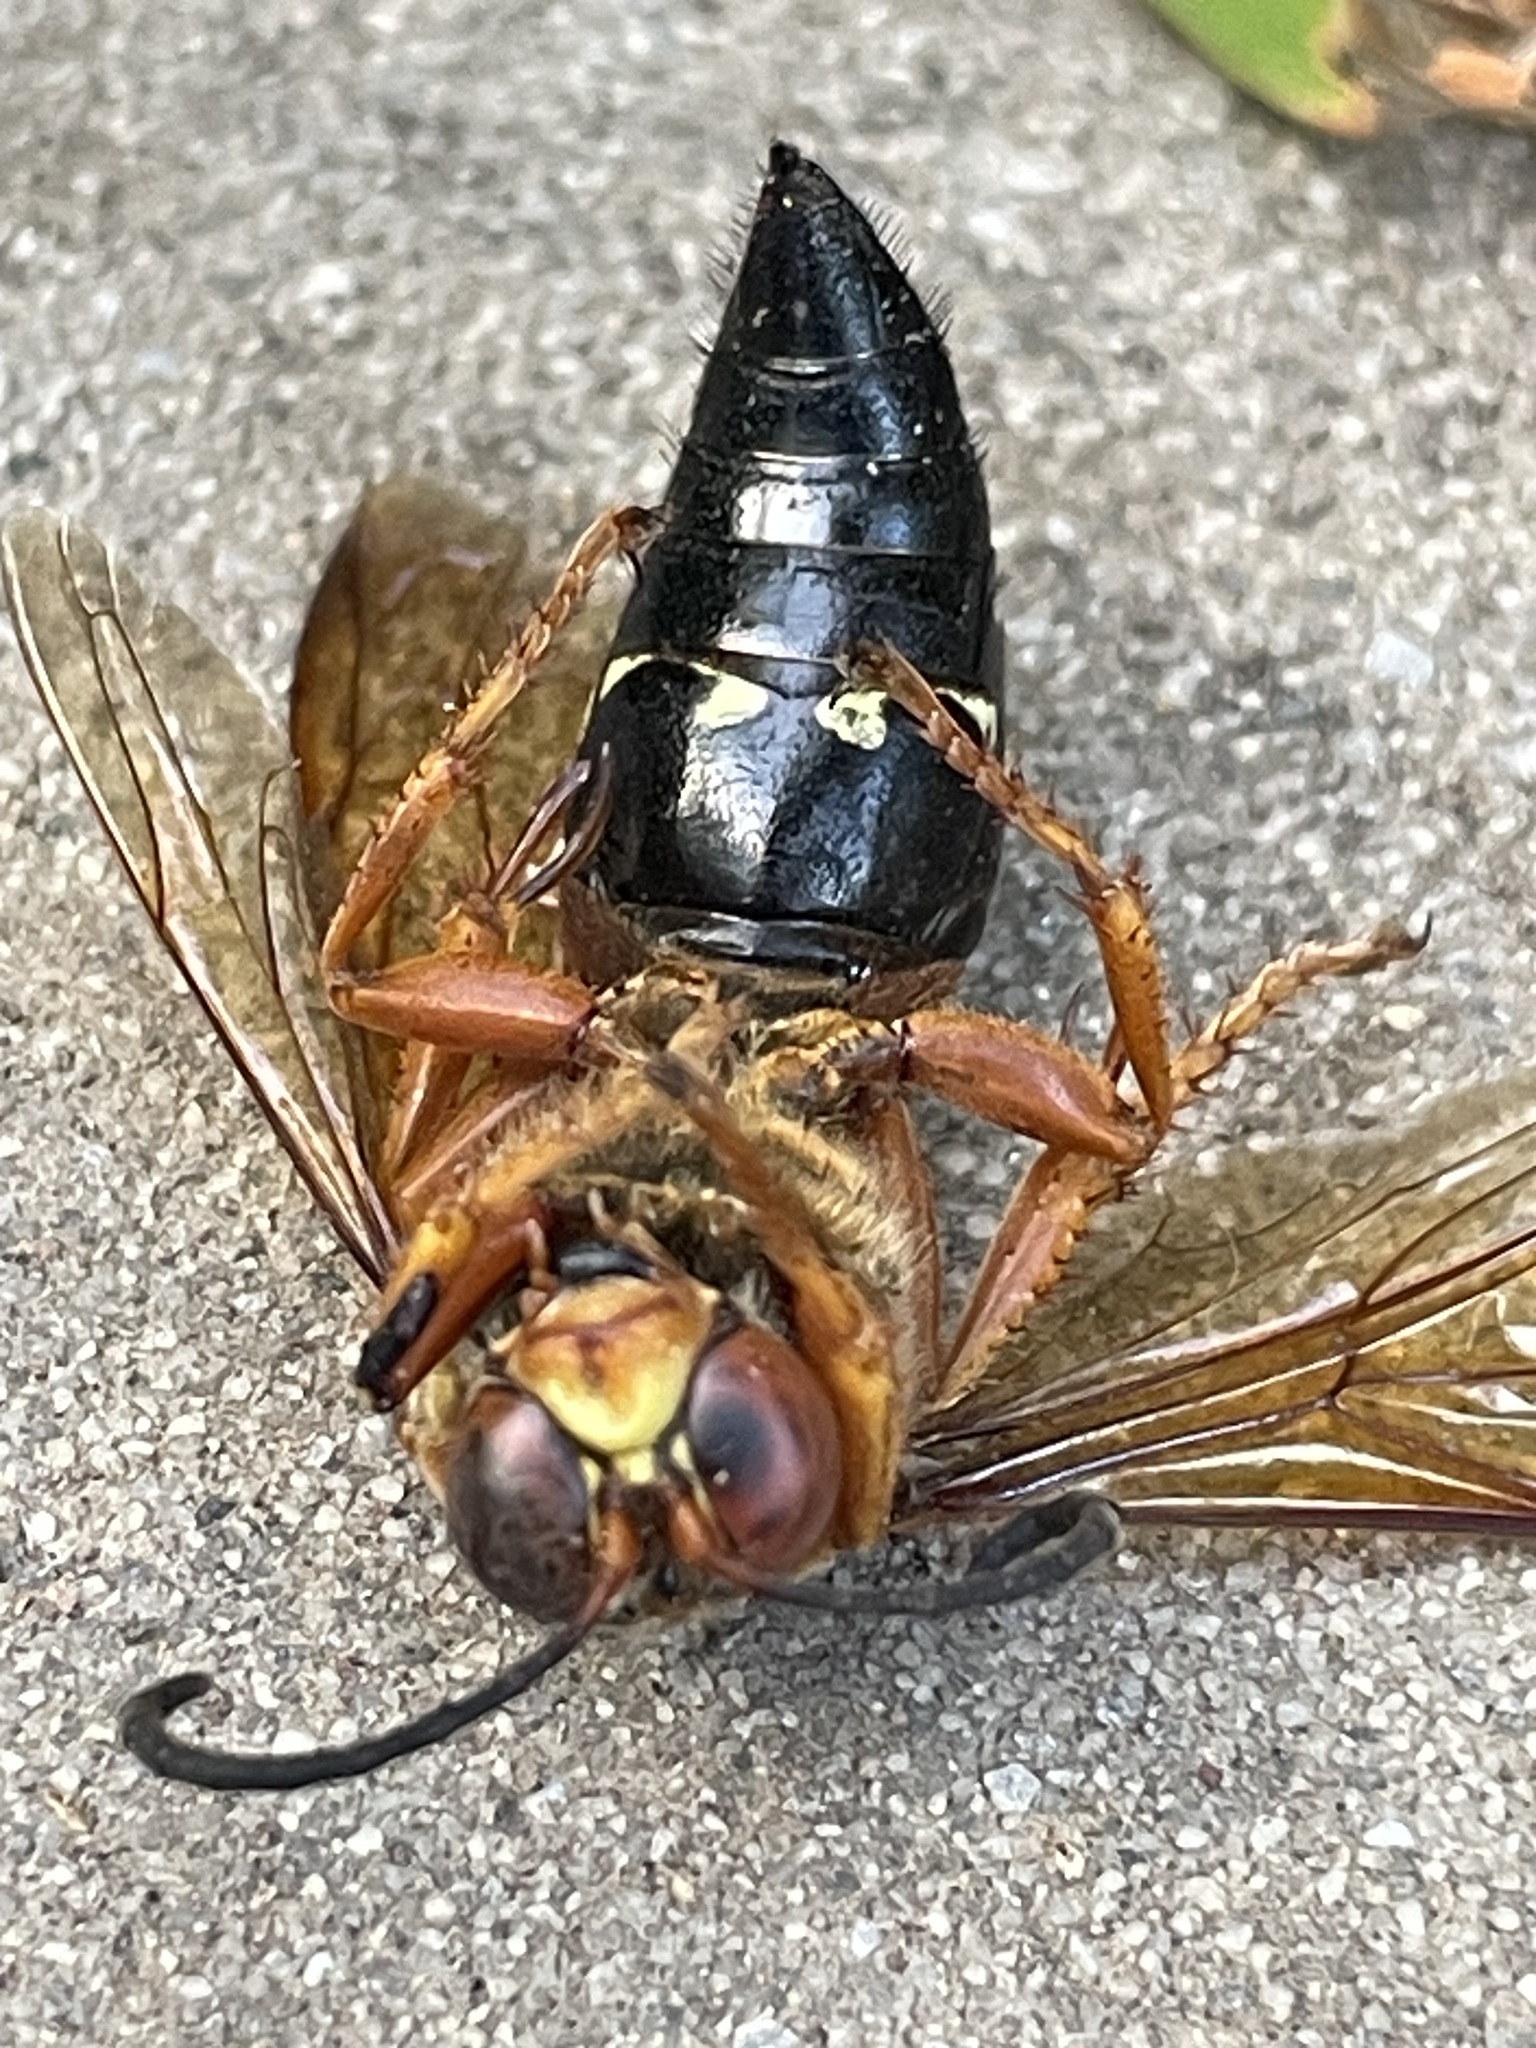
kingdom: Animalia
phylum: Arthropoda
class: Insecta
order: Hymenoptera
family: Crabronidae
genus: Sphecius
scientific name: Sphecius speciosus
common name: Cicada killer
